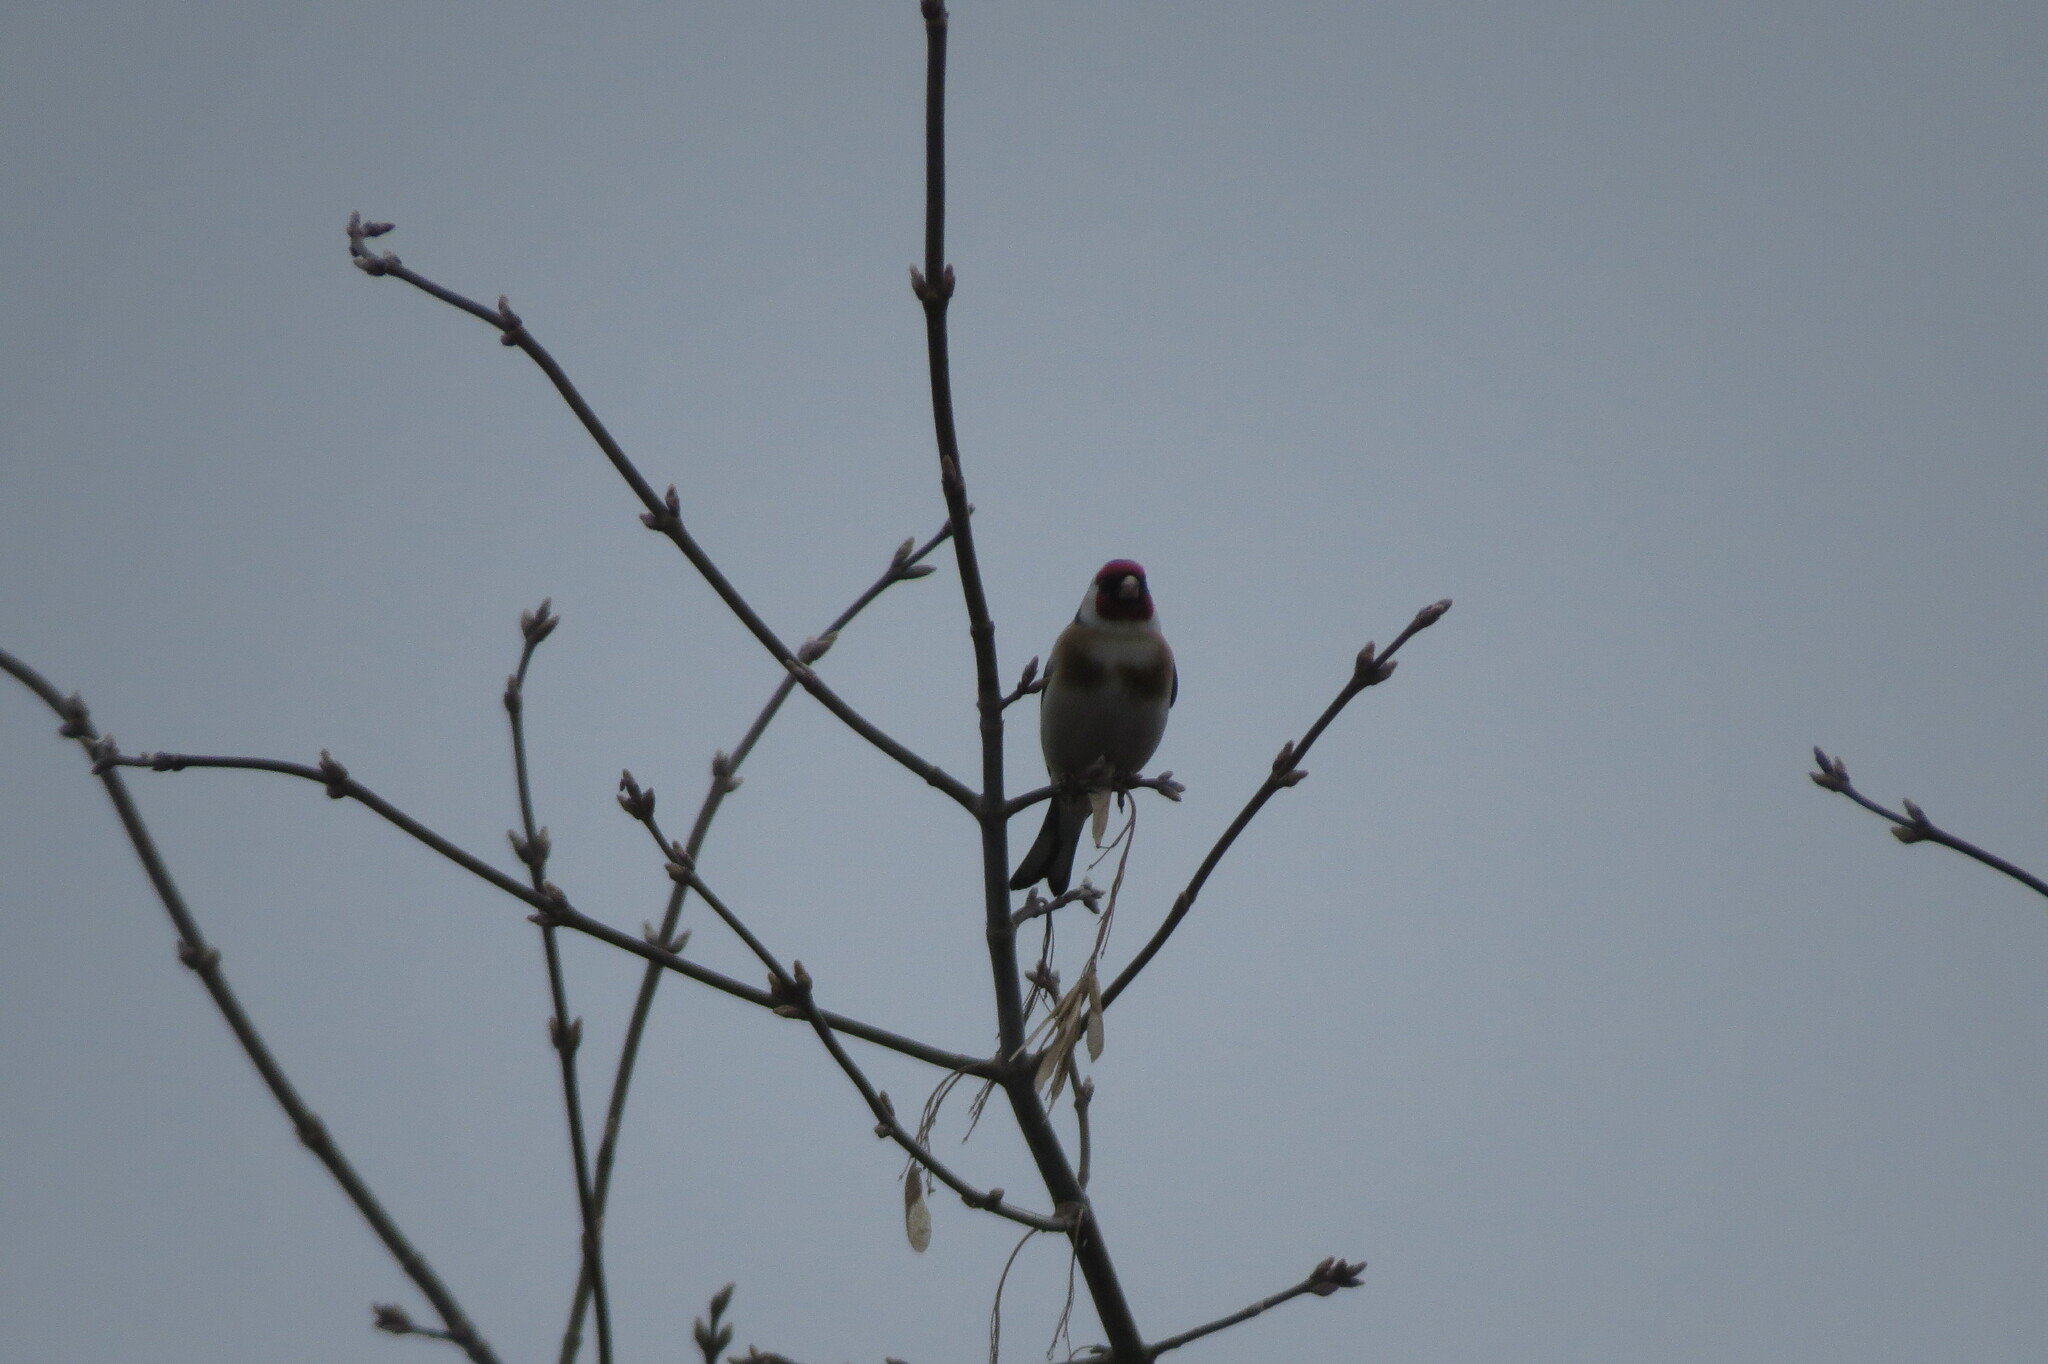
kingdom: Animalia
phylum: Chordata
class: Aves
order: Passeriformes
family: Fringillidae
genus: Carduelis
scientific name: Carduelis carduelis
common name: European goldfinch
